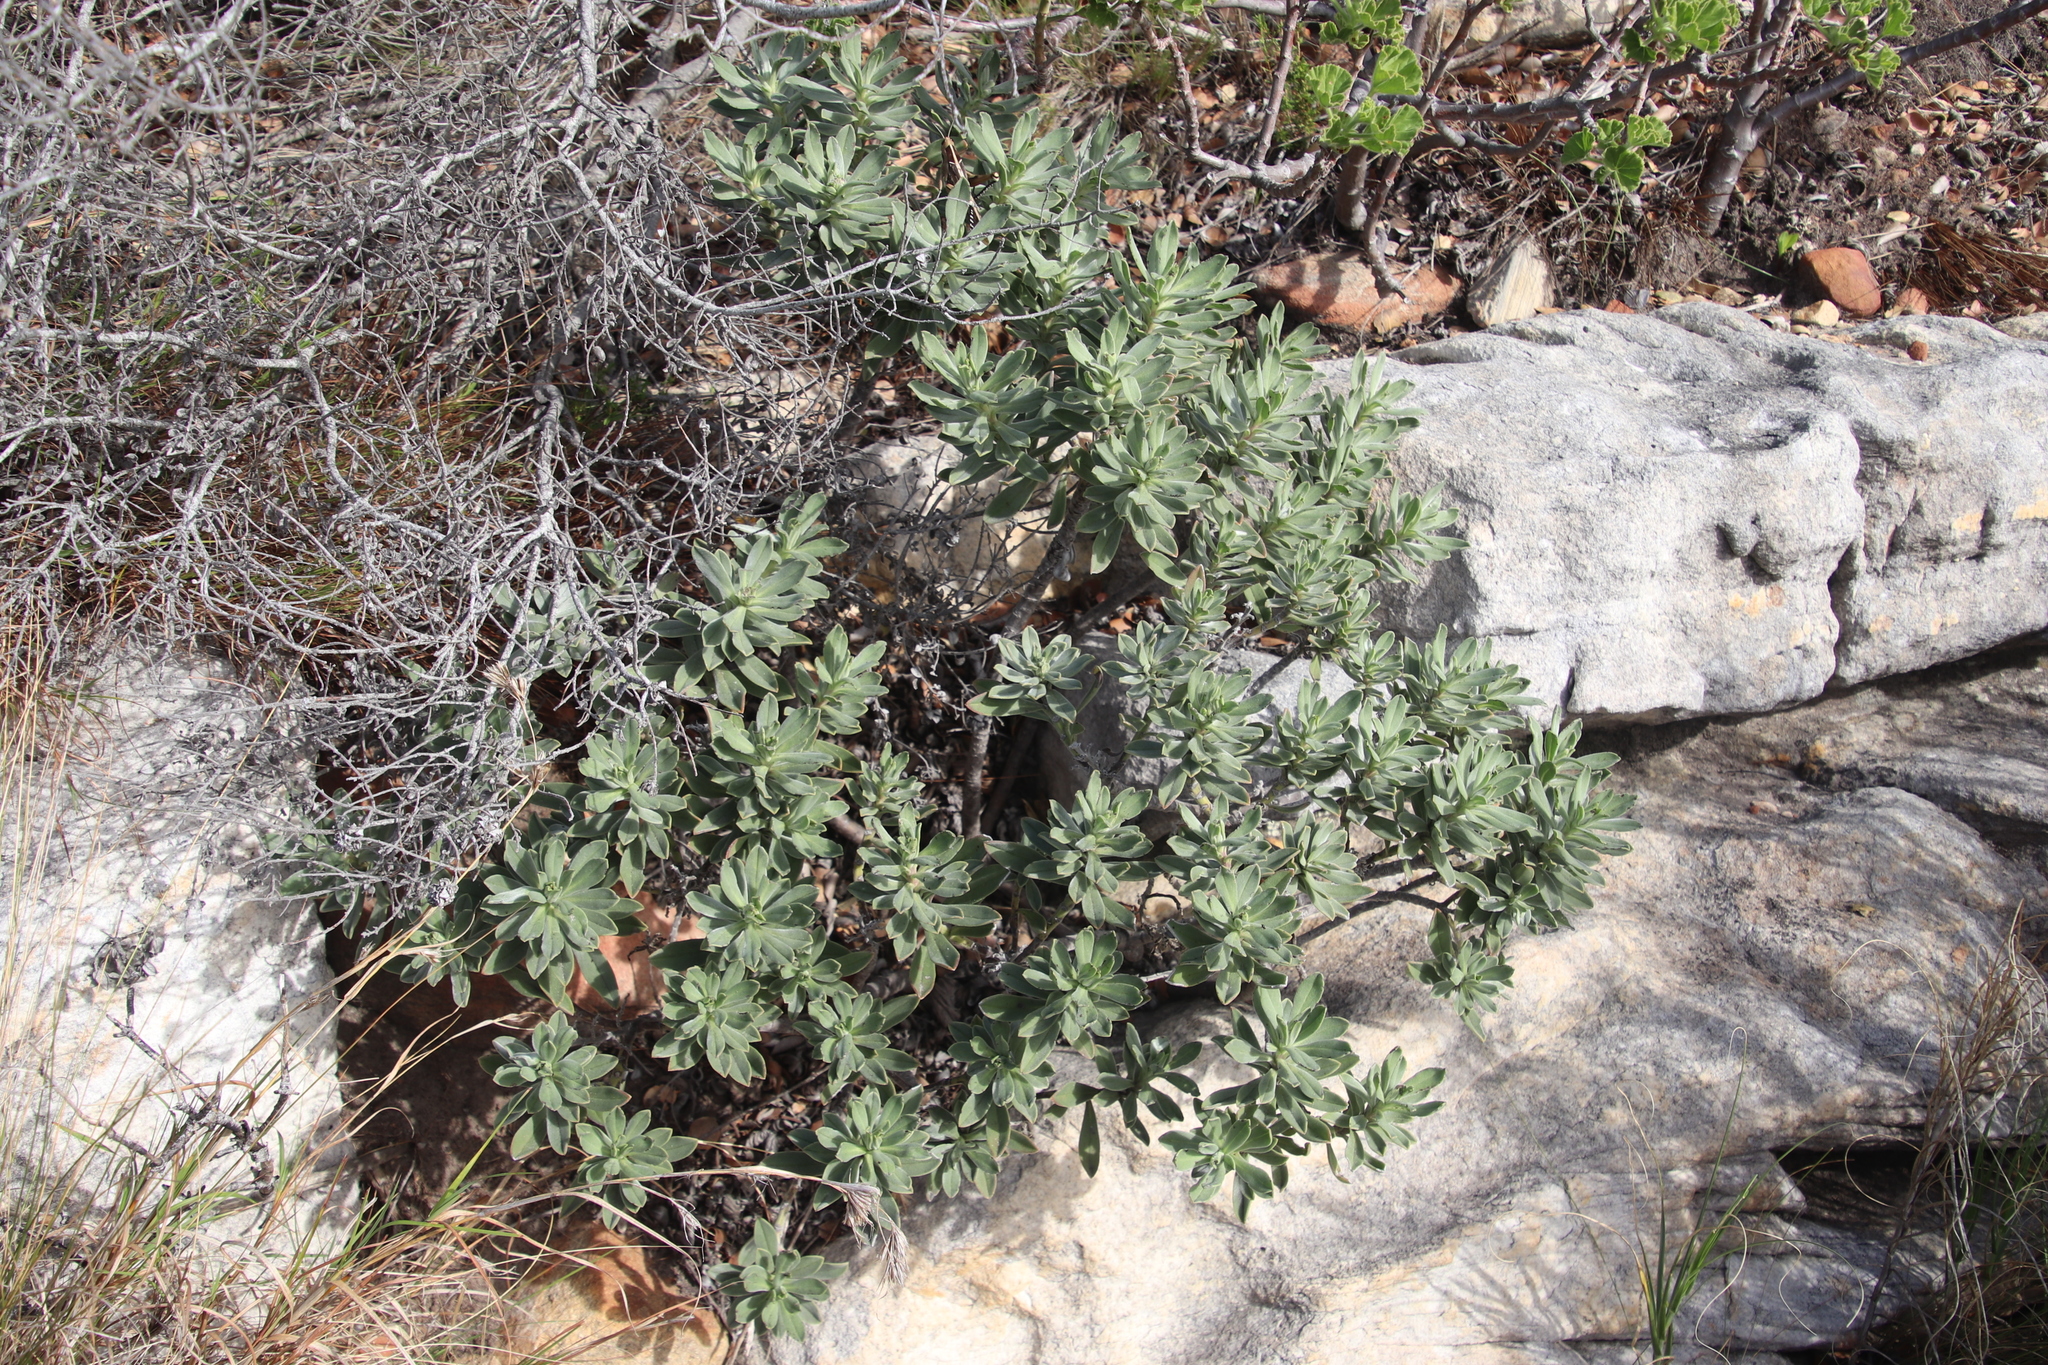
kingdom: Plantae
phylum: Tracheophyta
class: Magnoliopsida
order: Boraginales
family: Boraginaceae
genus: Lobostemon
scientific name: Lobostemon montanus
